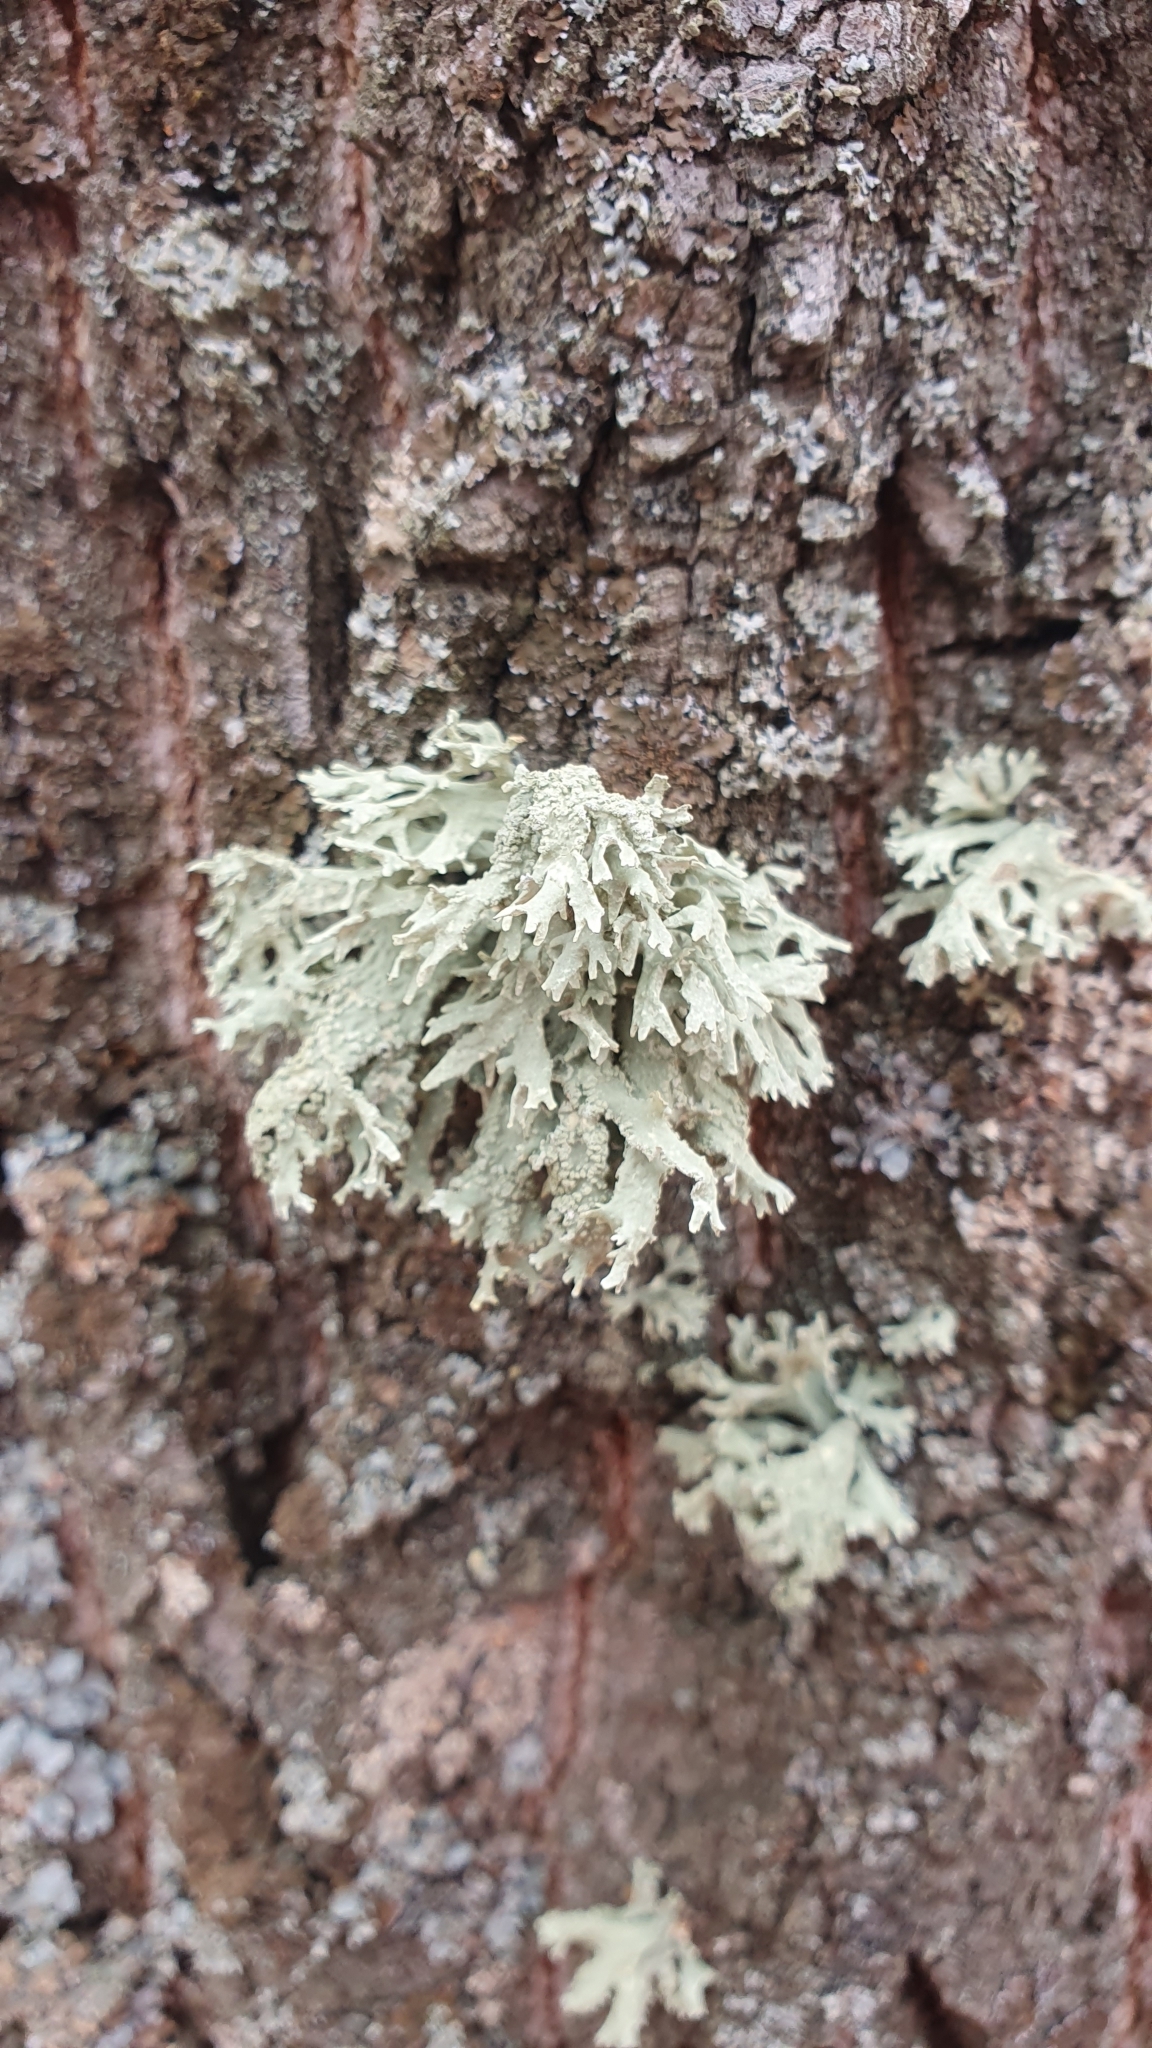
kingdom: Fungi
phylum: Ascomycota
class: Lecanoromycetes
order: Lecanorales
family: Parmeliaceae
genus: Evernia
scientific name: Evernia prunastri
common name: Oak moss
